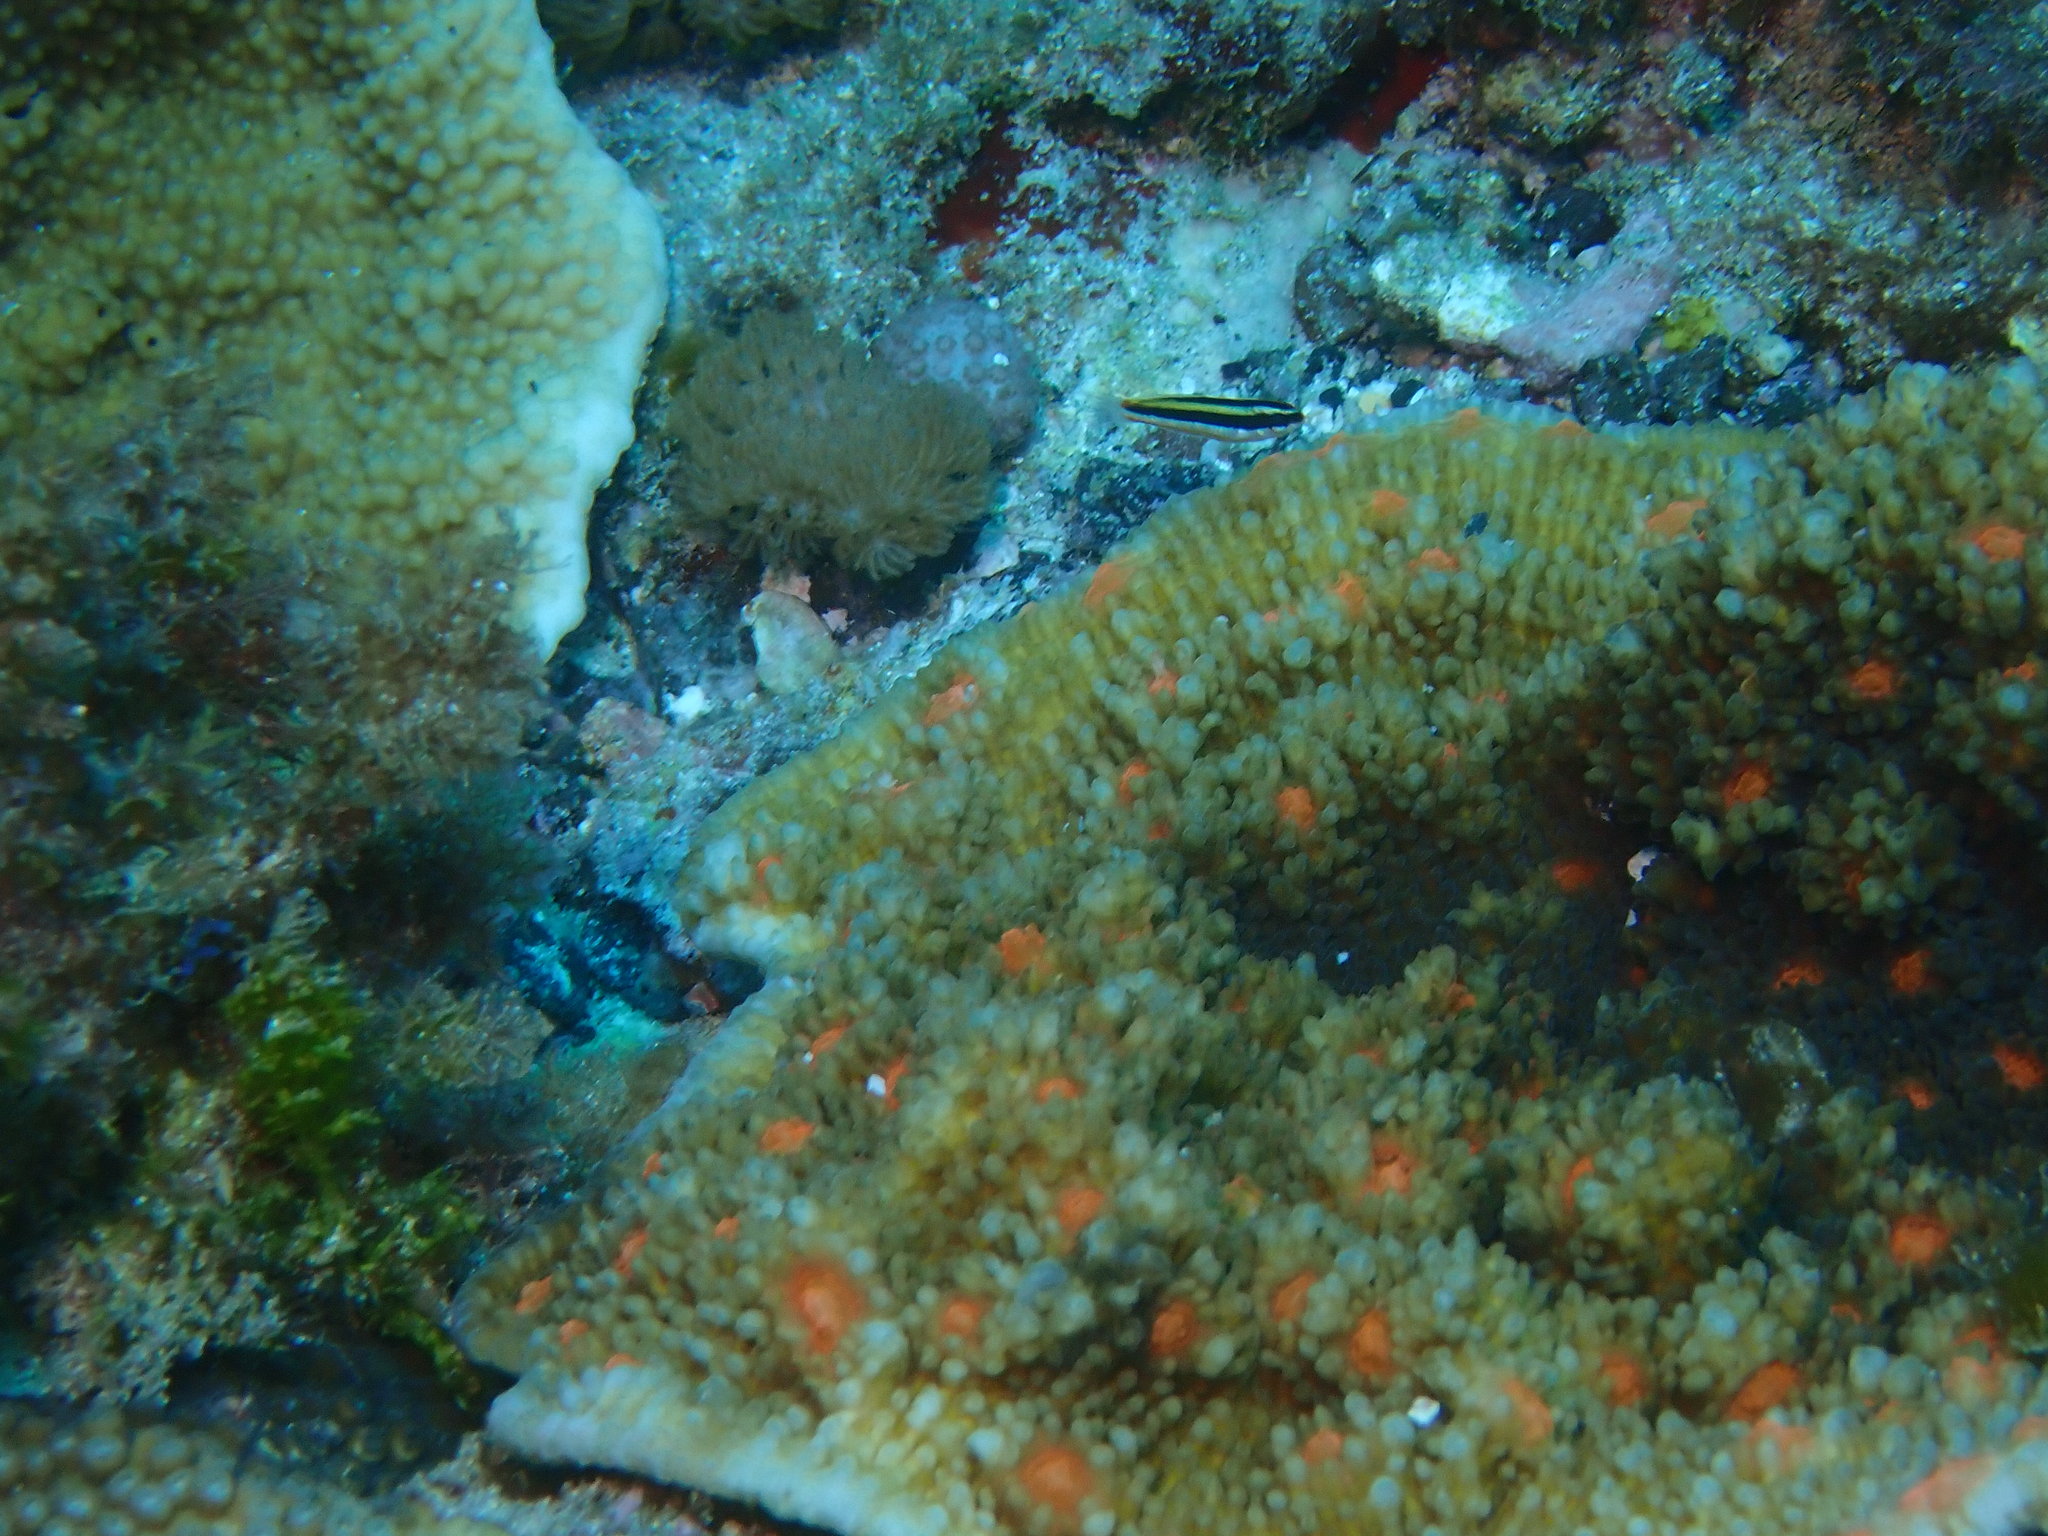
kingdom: Animalia
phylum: Chordata
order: Perciformes
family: Labridae
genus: Thalassoma
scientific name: Thalassoma amblycephalum
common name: Bluehead wrasse
